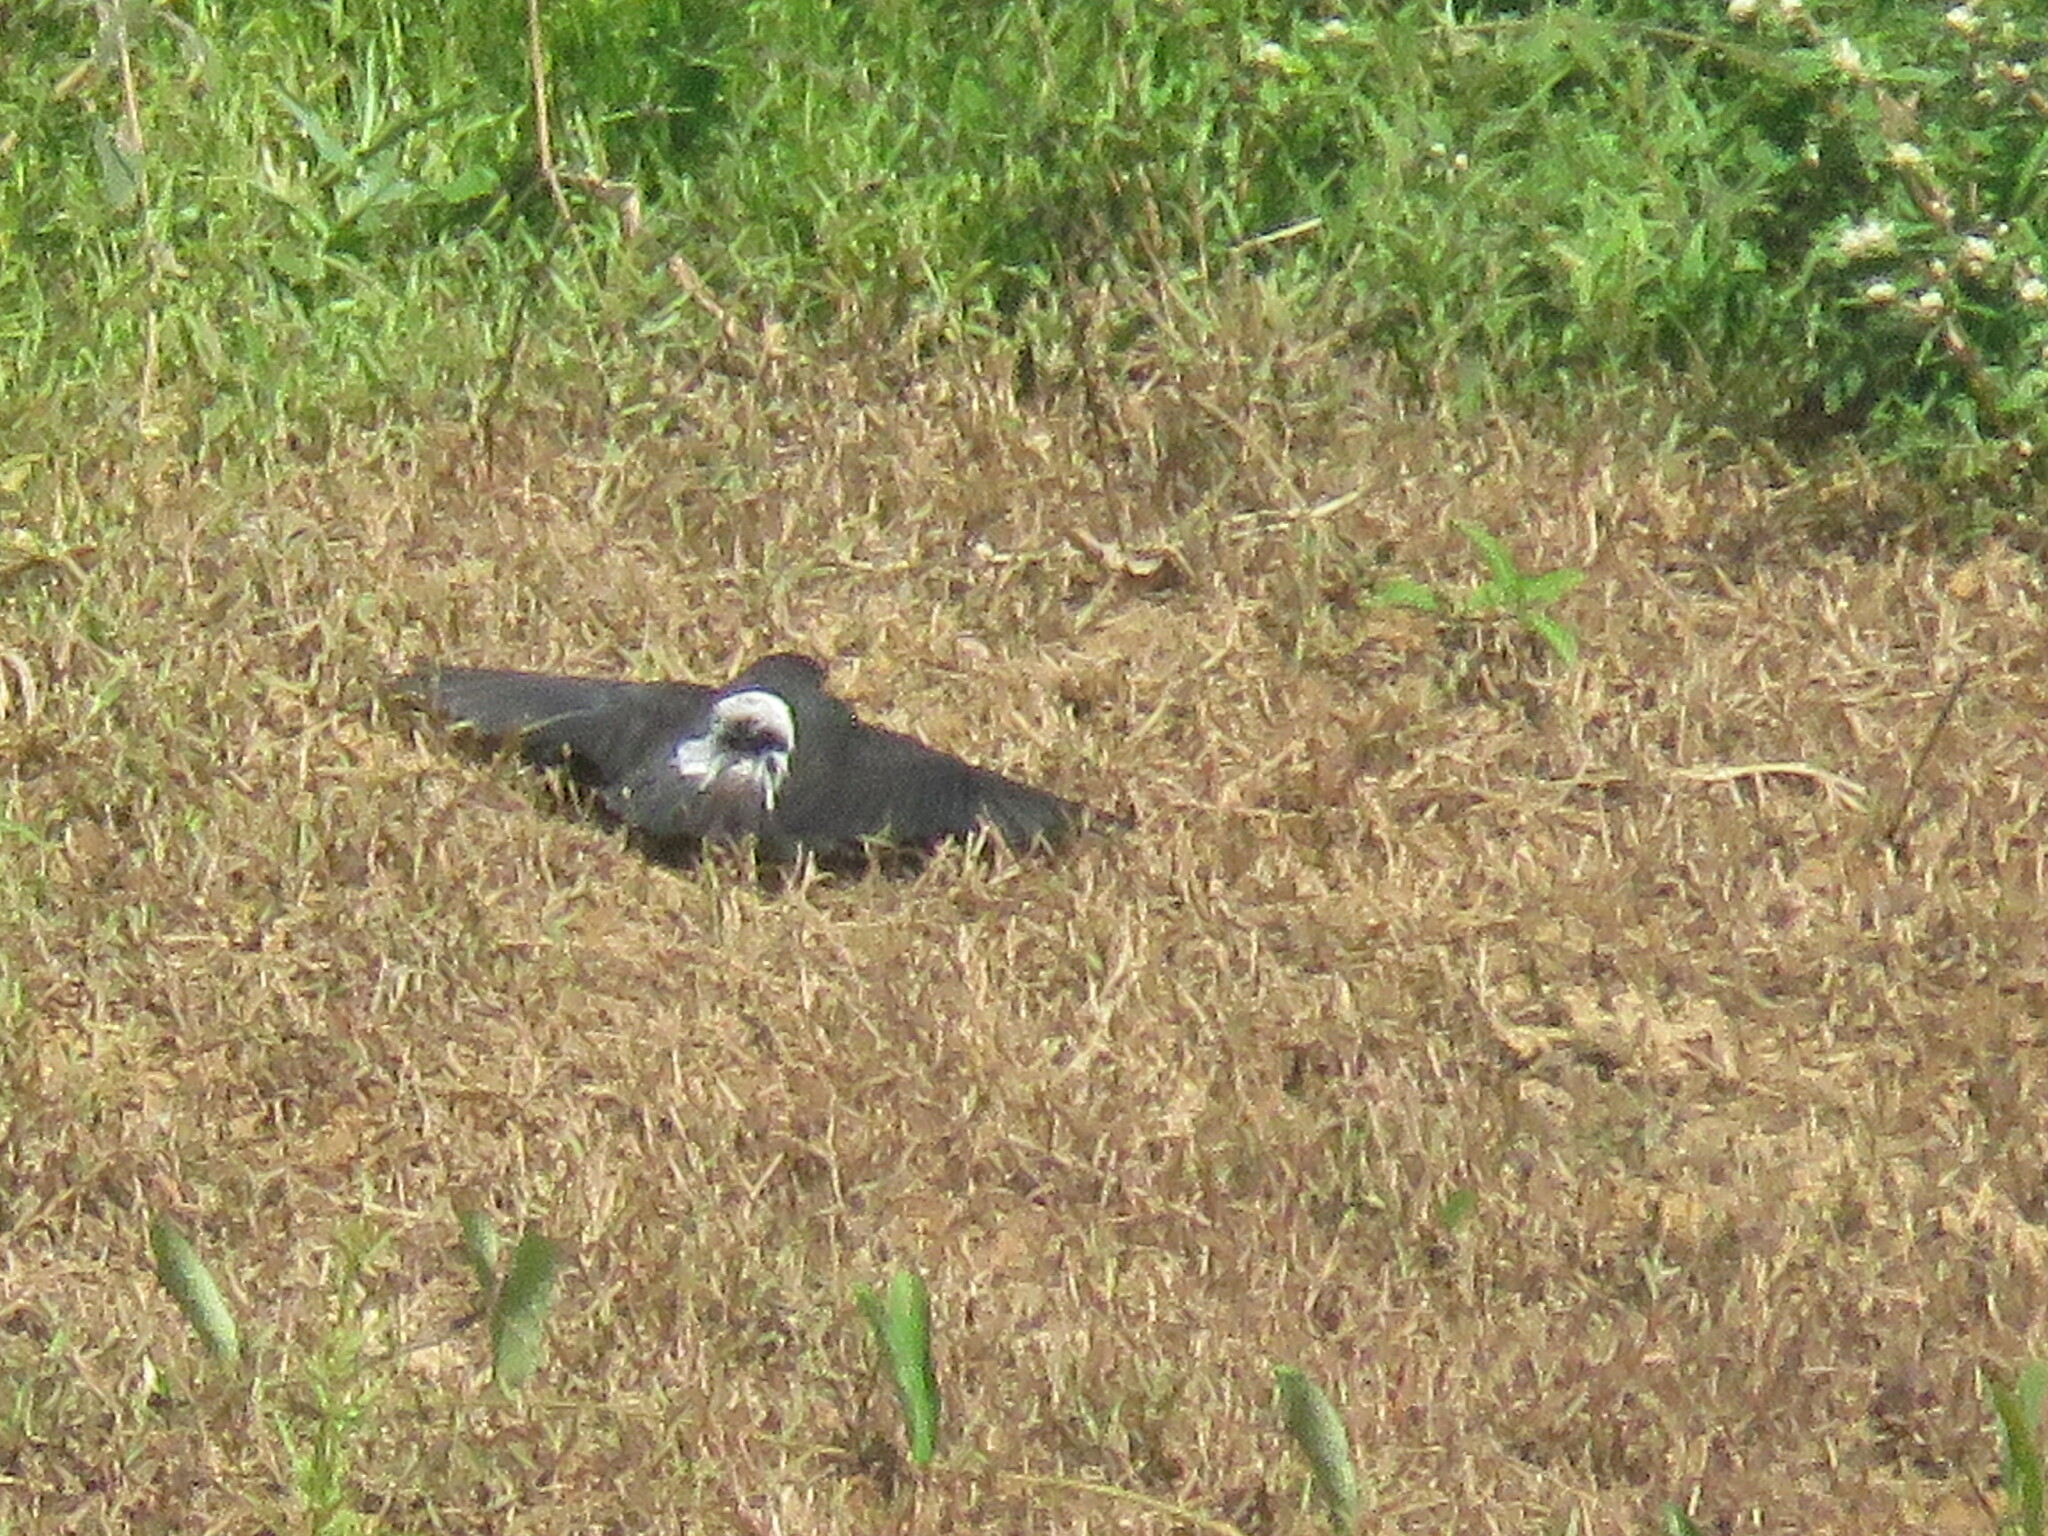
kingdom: Animalia
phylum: Chordata
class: Aves
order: Piciformes
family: Bucconidae
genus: Chelidoptera
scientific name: Chelidoptera tenebrosa
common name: Swallow-winged puffbird
